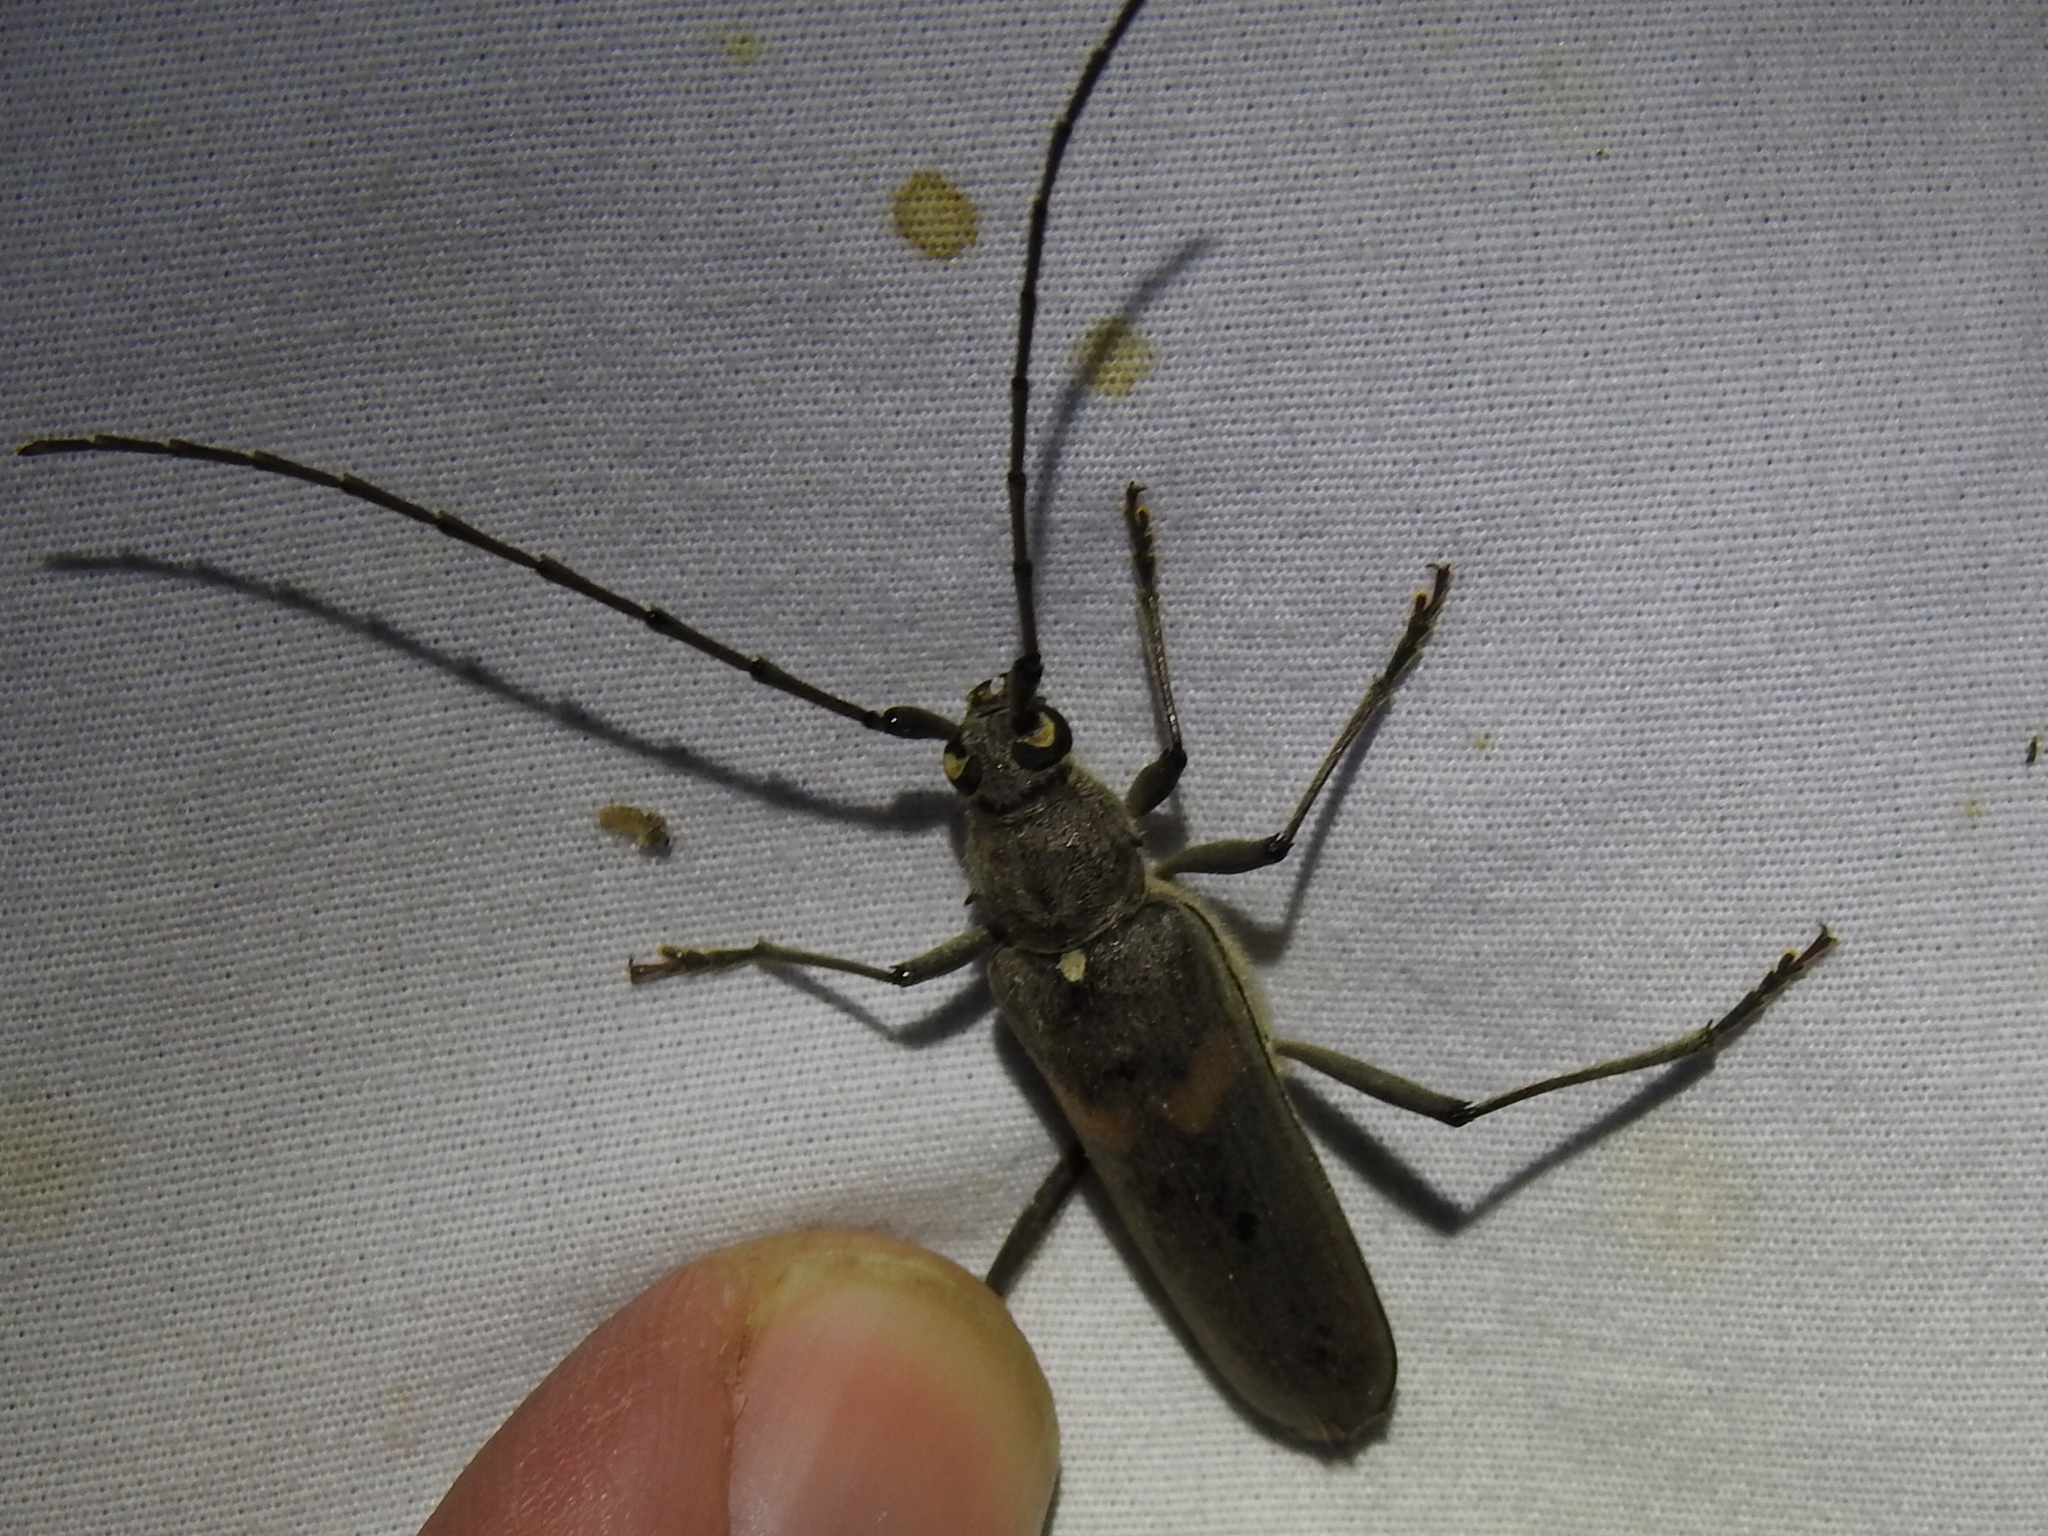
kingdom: Animalia
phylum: Arthropoda
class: Insecta
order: Coleoptera
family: Cerambycidae
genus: Knulliana
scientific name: Knulliana cincta
